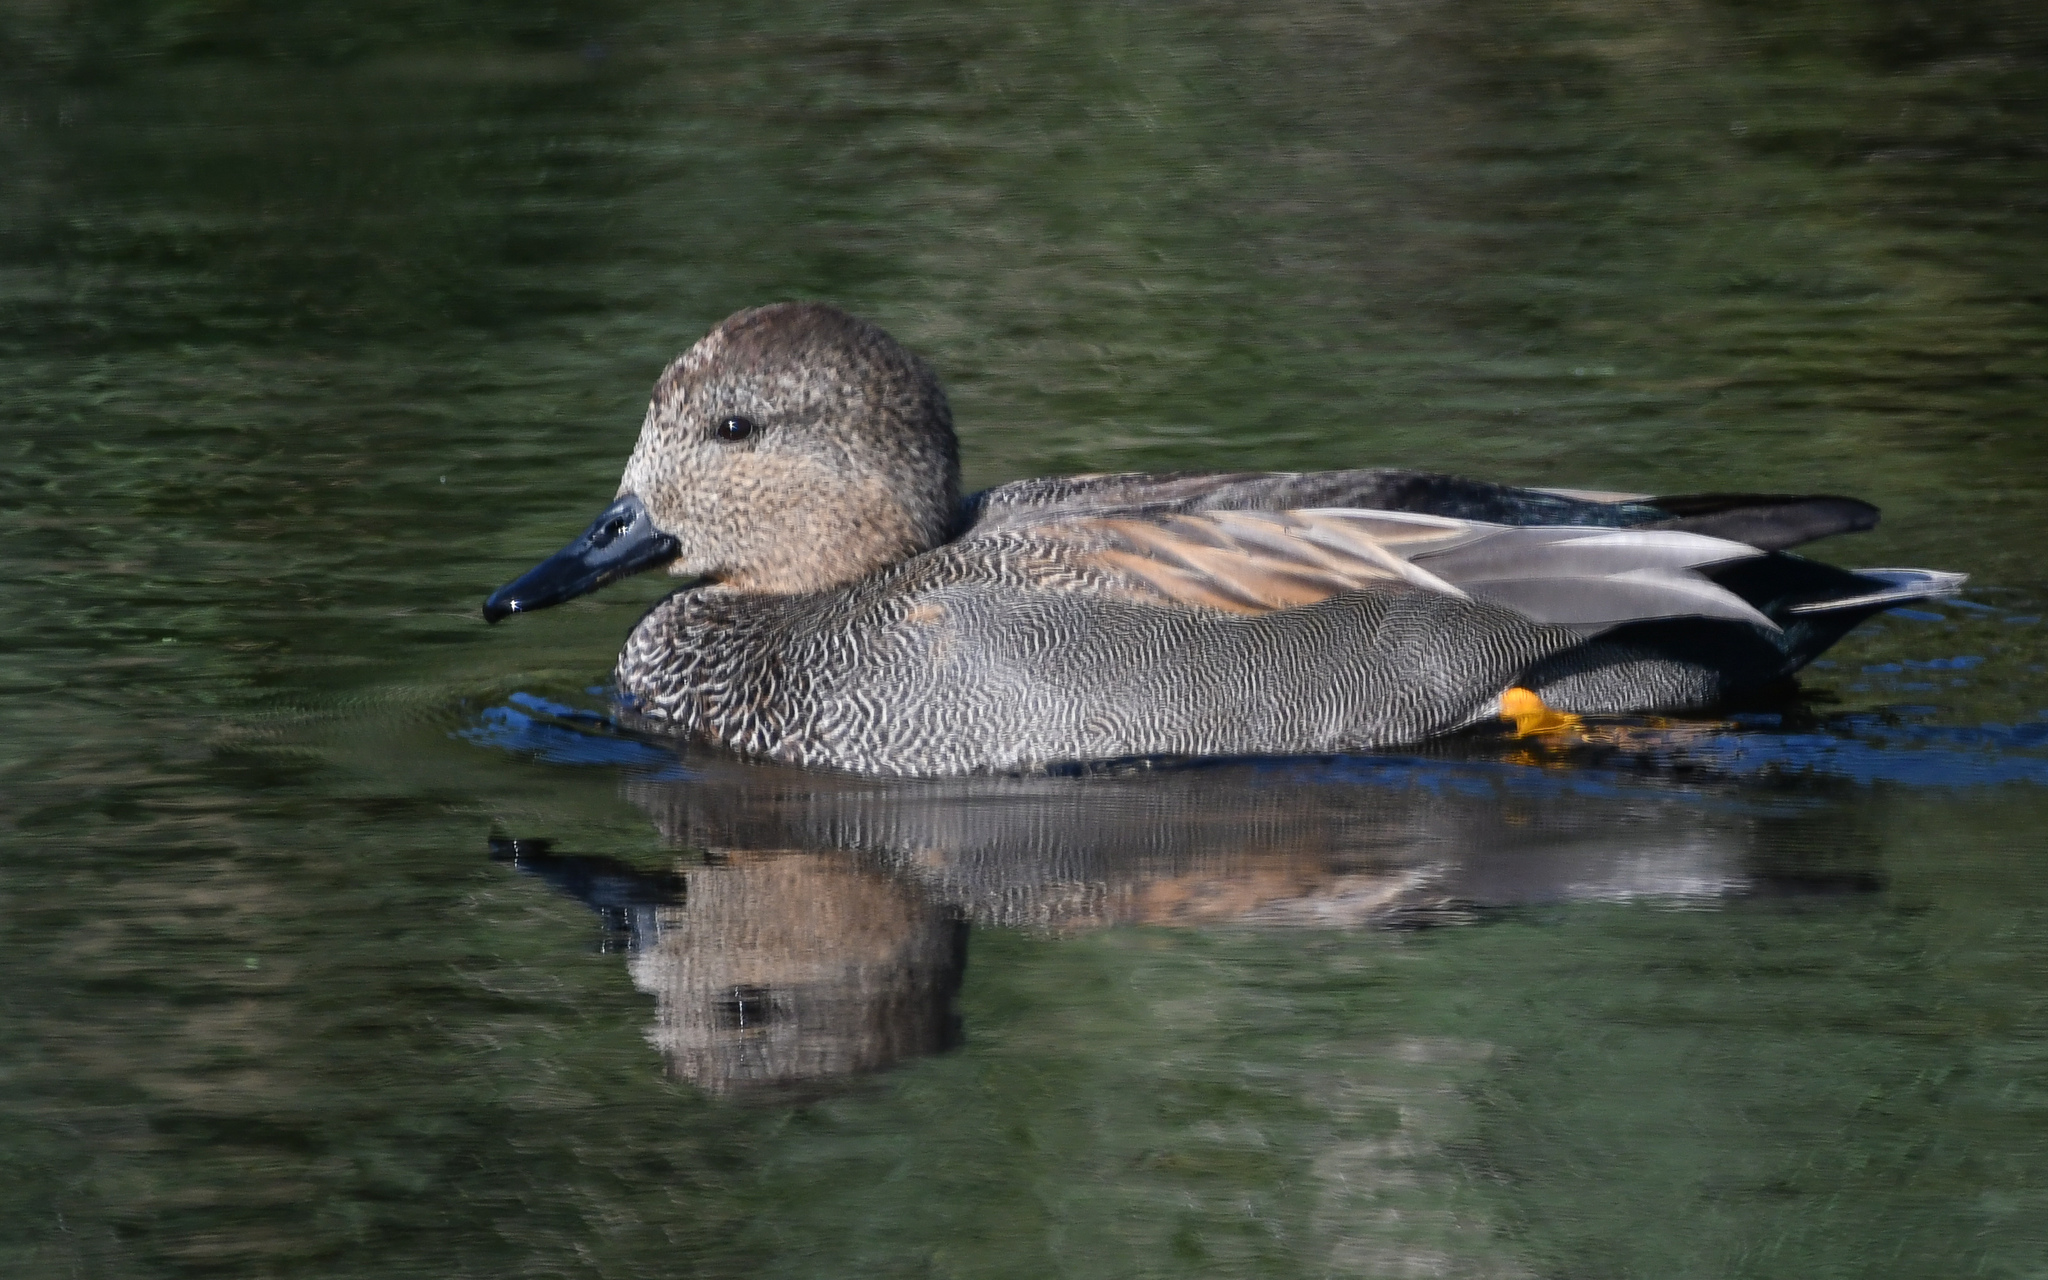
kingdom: Animalia
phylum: Chordata
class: Aves
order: Anseriformes
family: Anatidae
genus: Mareca
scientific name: Mareca strepera
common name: Gadwall
